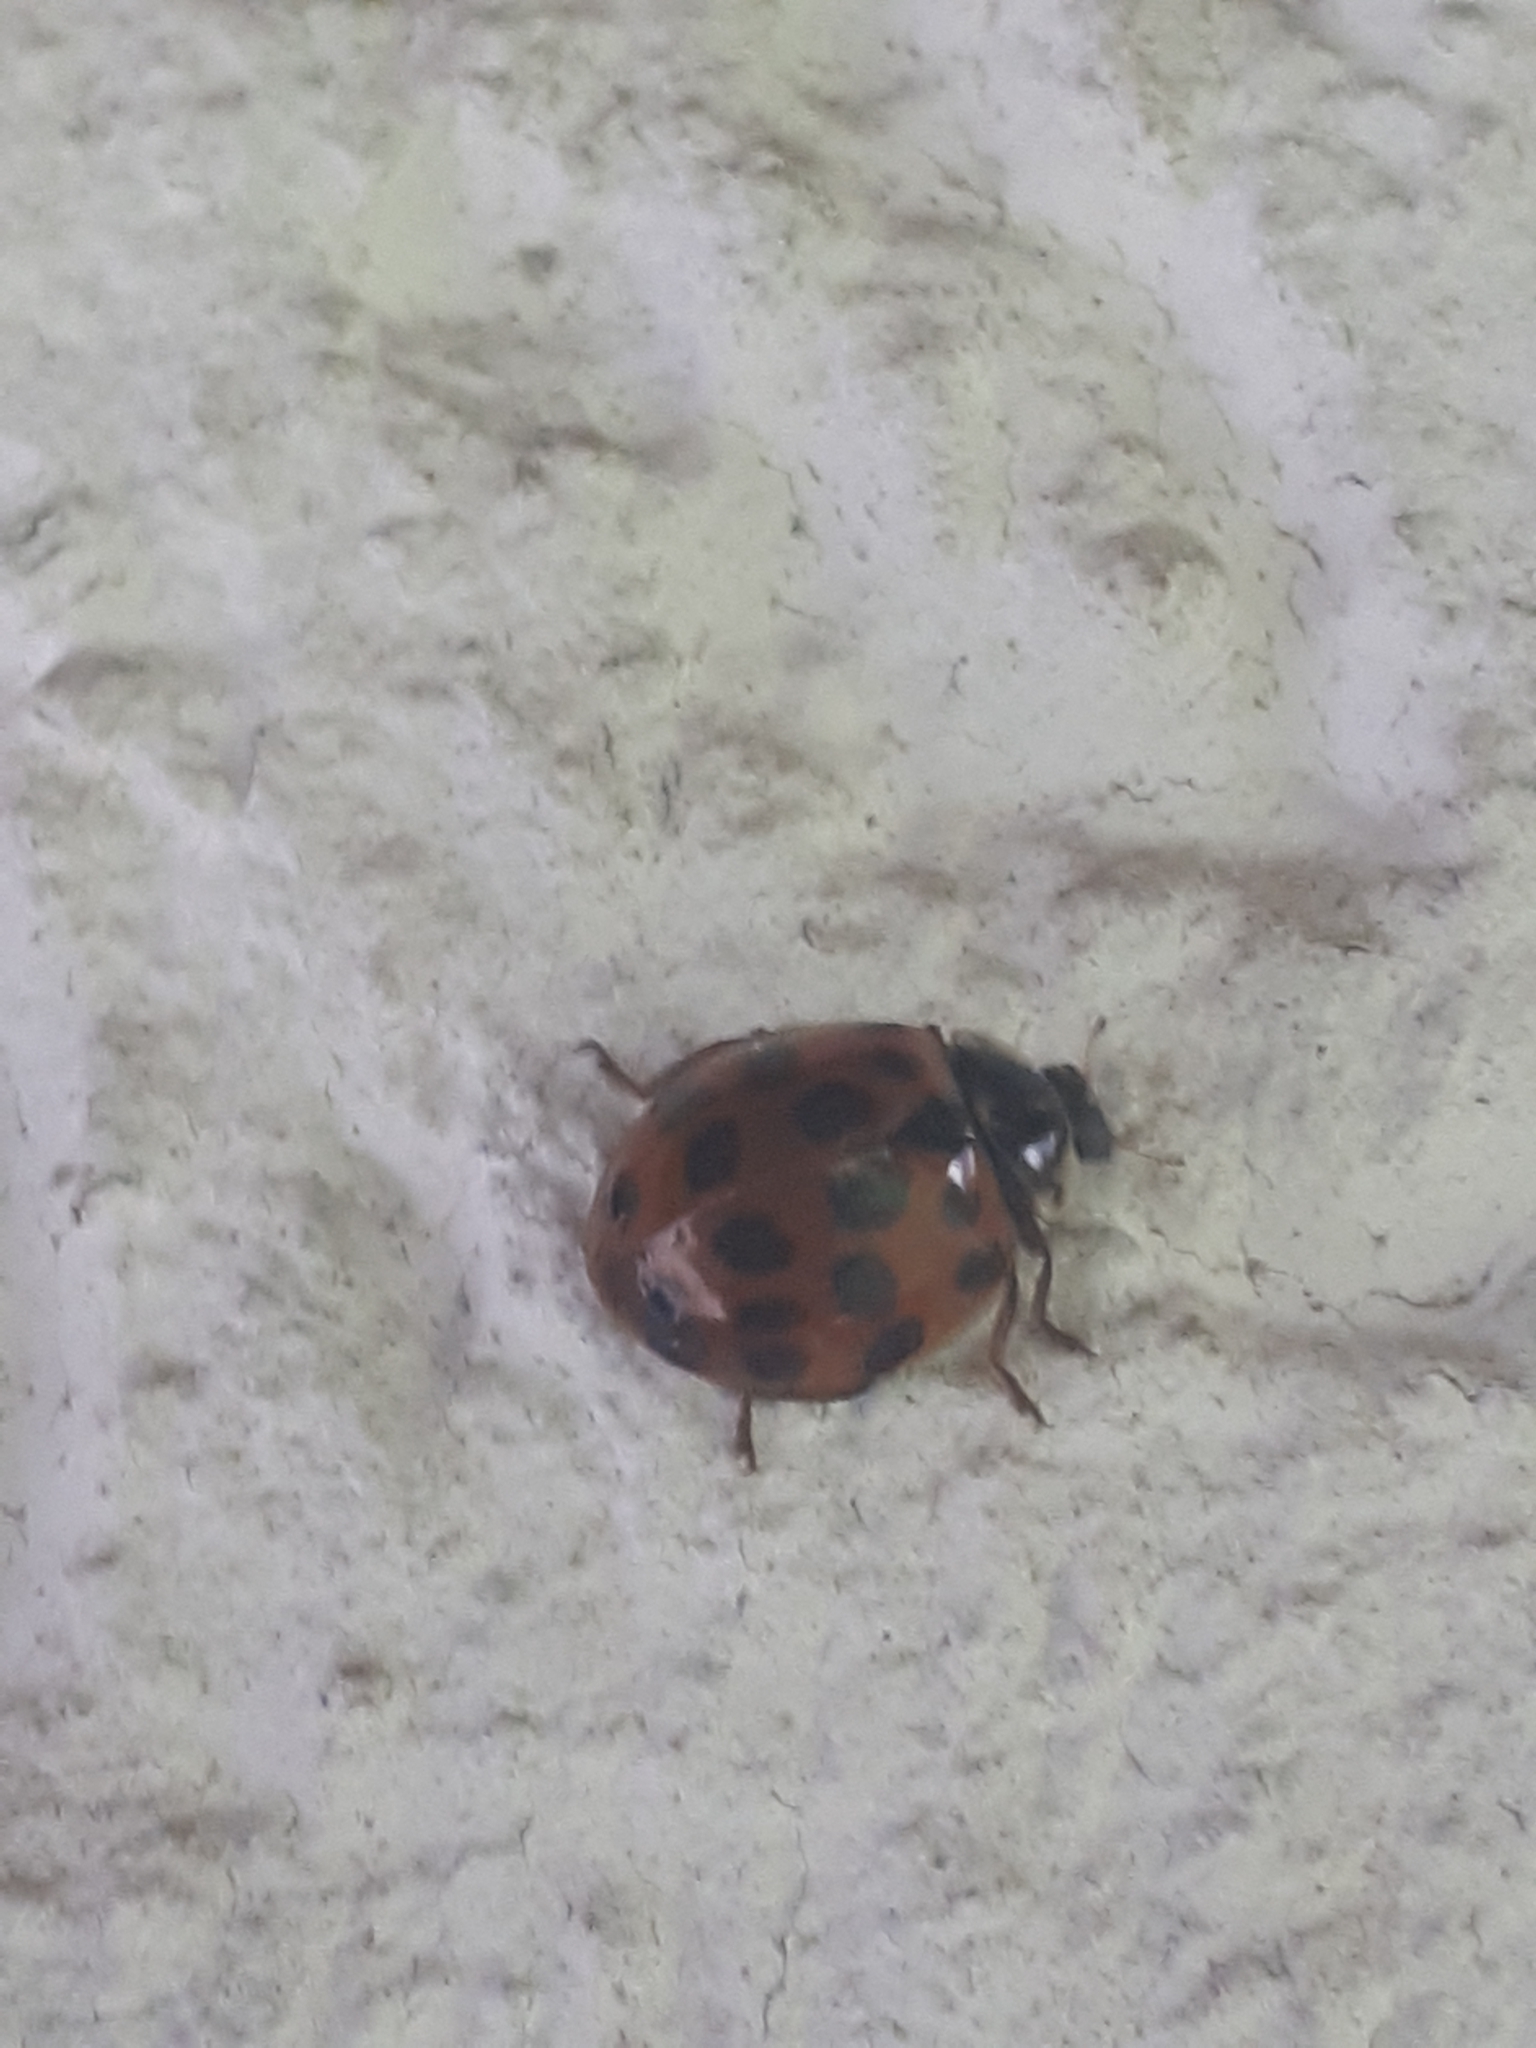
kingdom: Animalia
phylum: Arthropoda
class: Insecta
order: Coleoptera
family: Coccinellidae
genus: Harmonia
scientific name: Harmonia axyridis
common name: Harlequin ladybird
